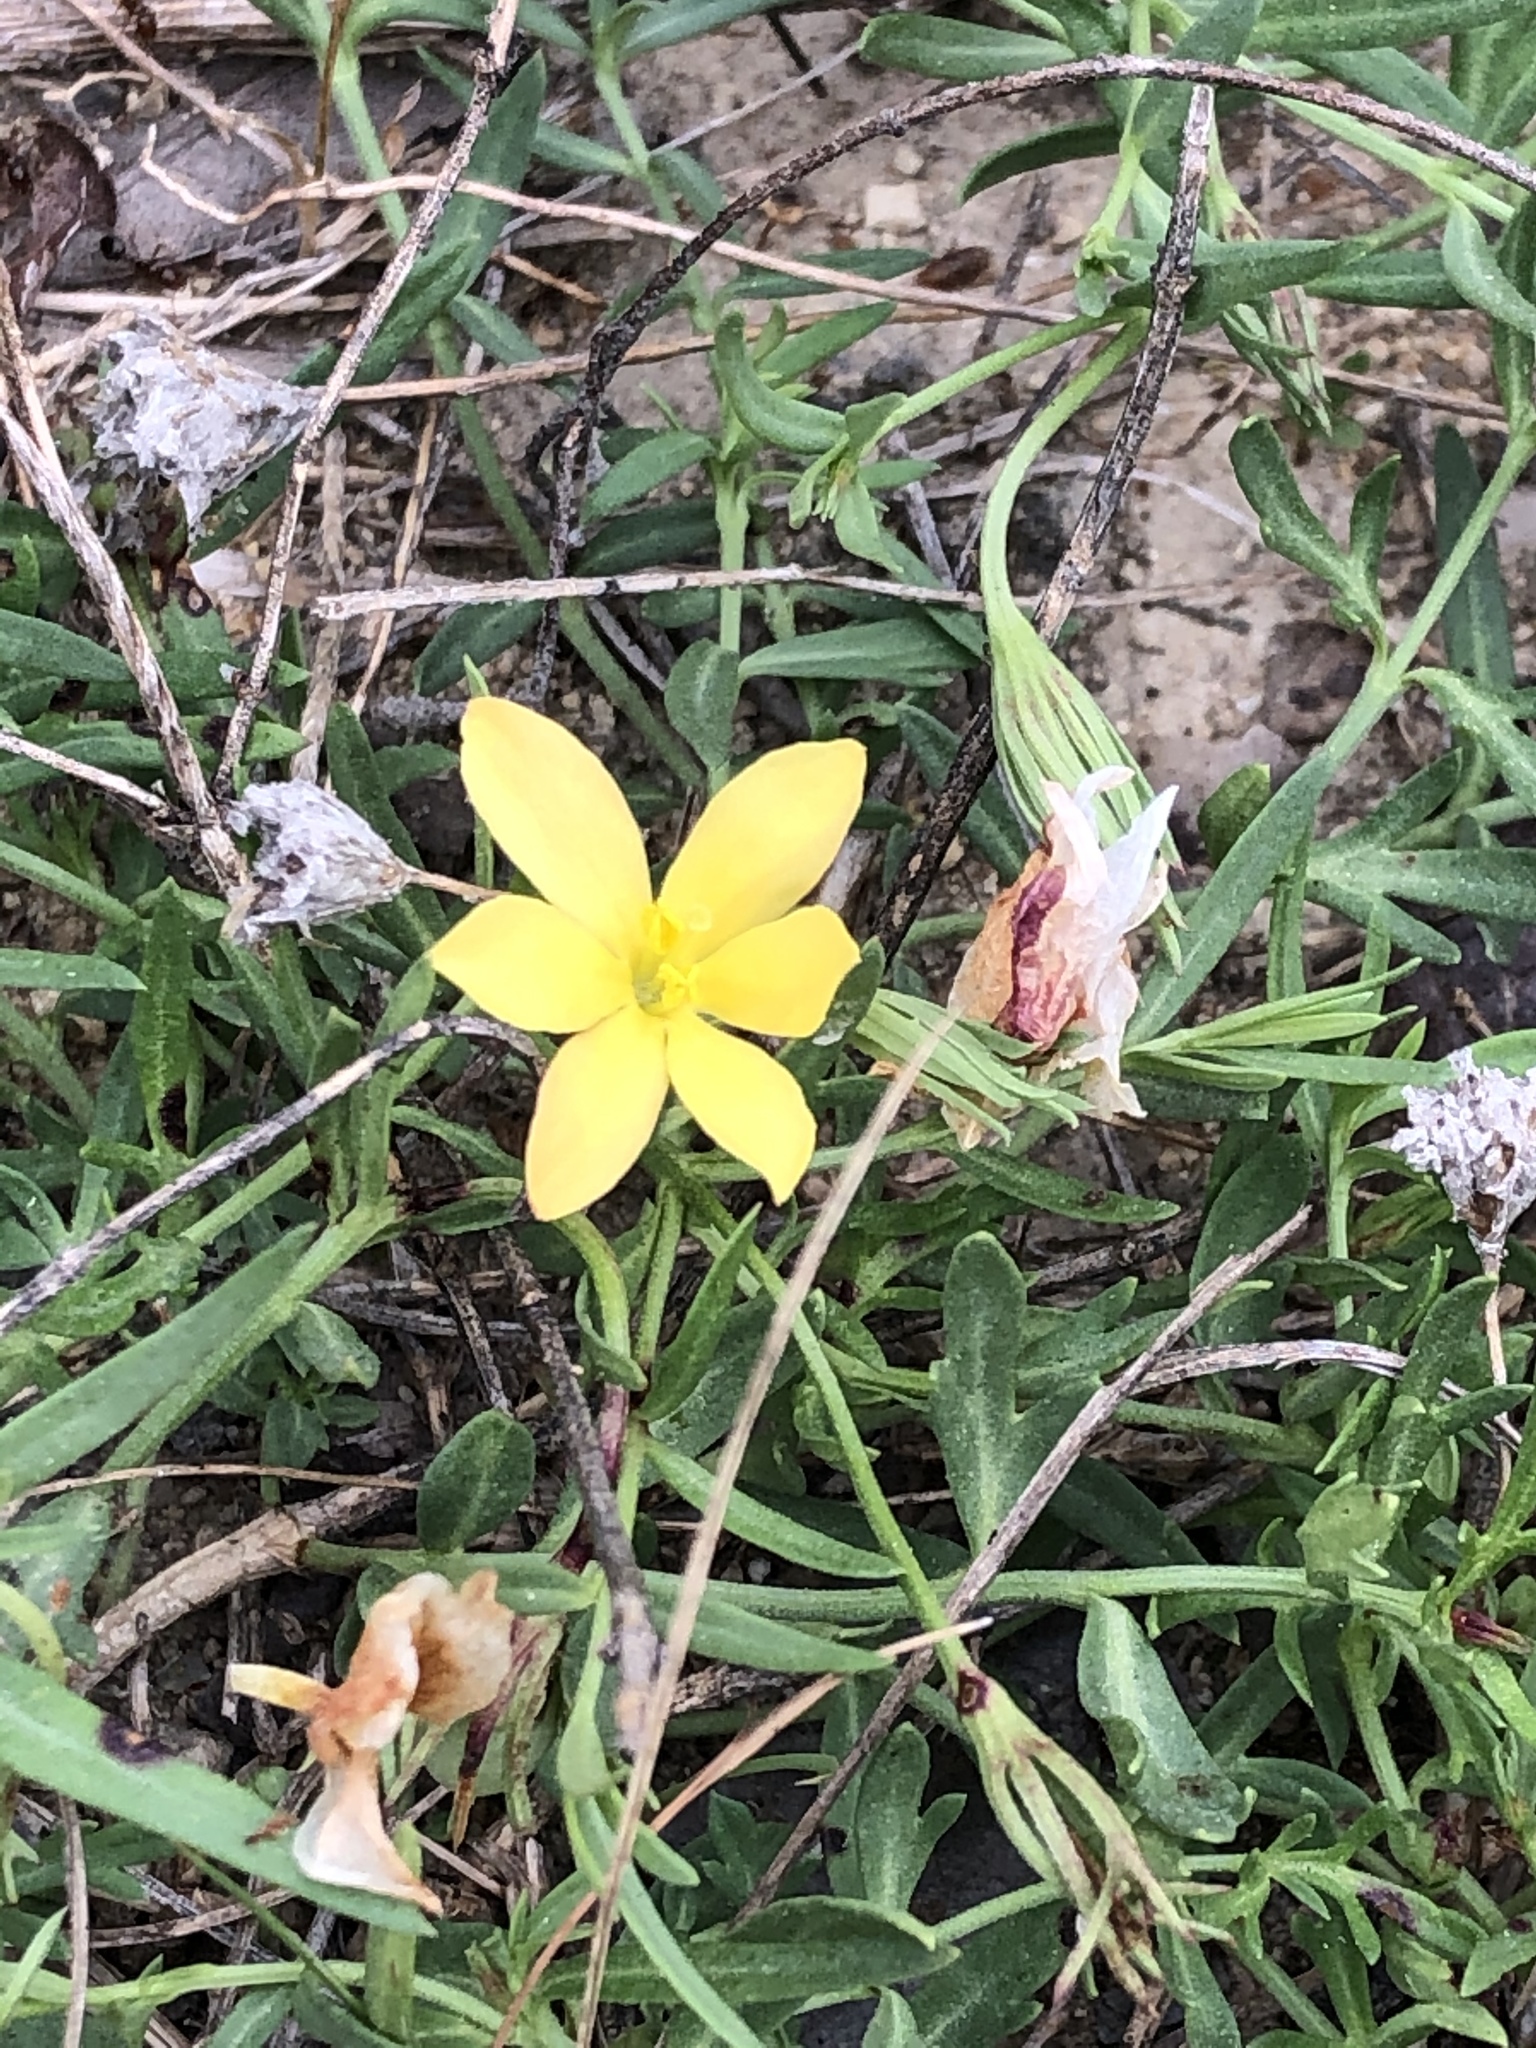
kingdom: Plantae
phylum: Tracheophyta
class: Magnoliopsida
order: Lamiales
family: Oleaceae
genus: Menodora
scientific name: Menodora heterophylla
